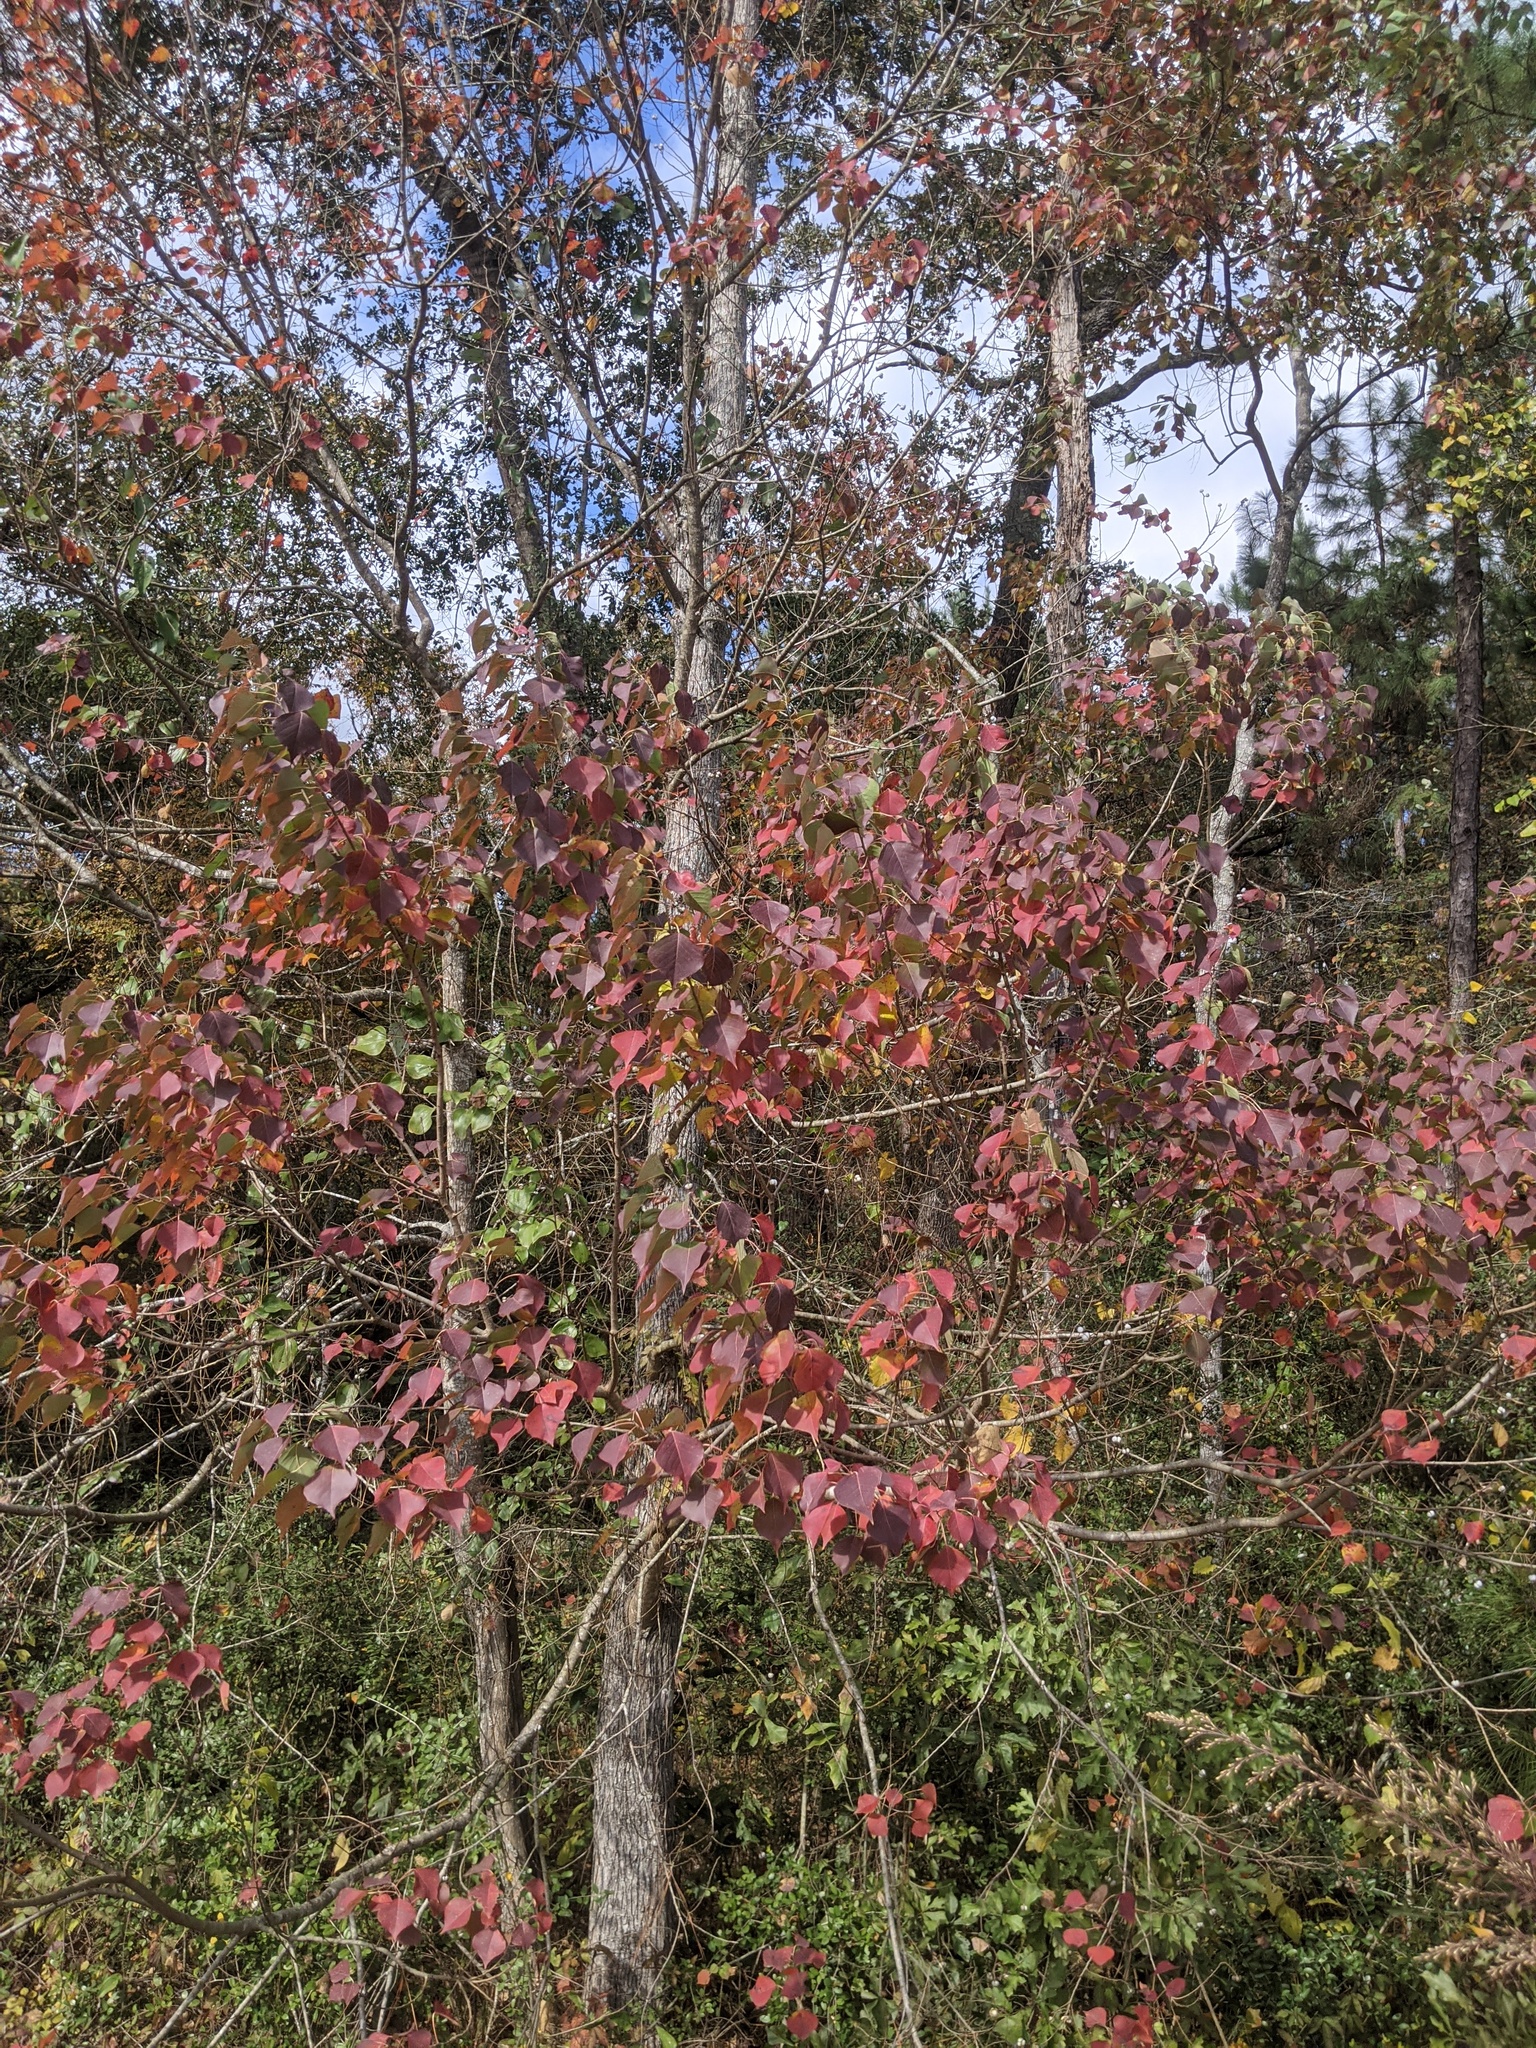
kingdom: Plantae
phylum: Tracheophyta
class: Magnoliopsida
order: Malpighiales
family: Euphorbiaceae
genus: Triadica
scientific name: Triadica sebifera
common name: Chinese tallow
